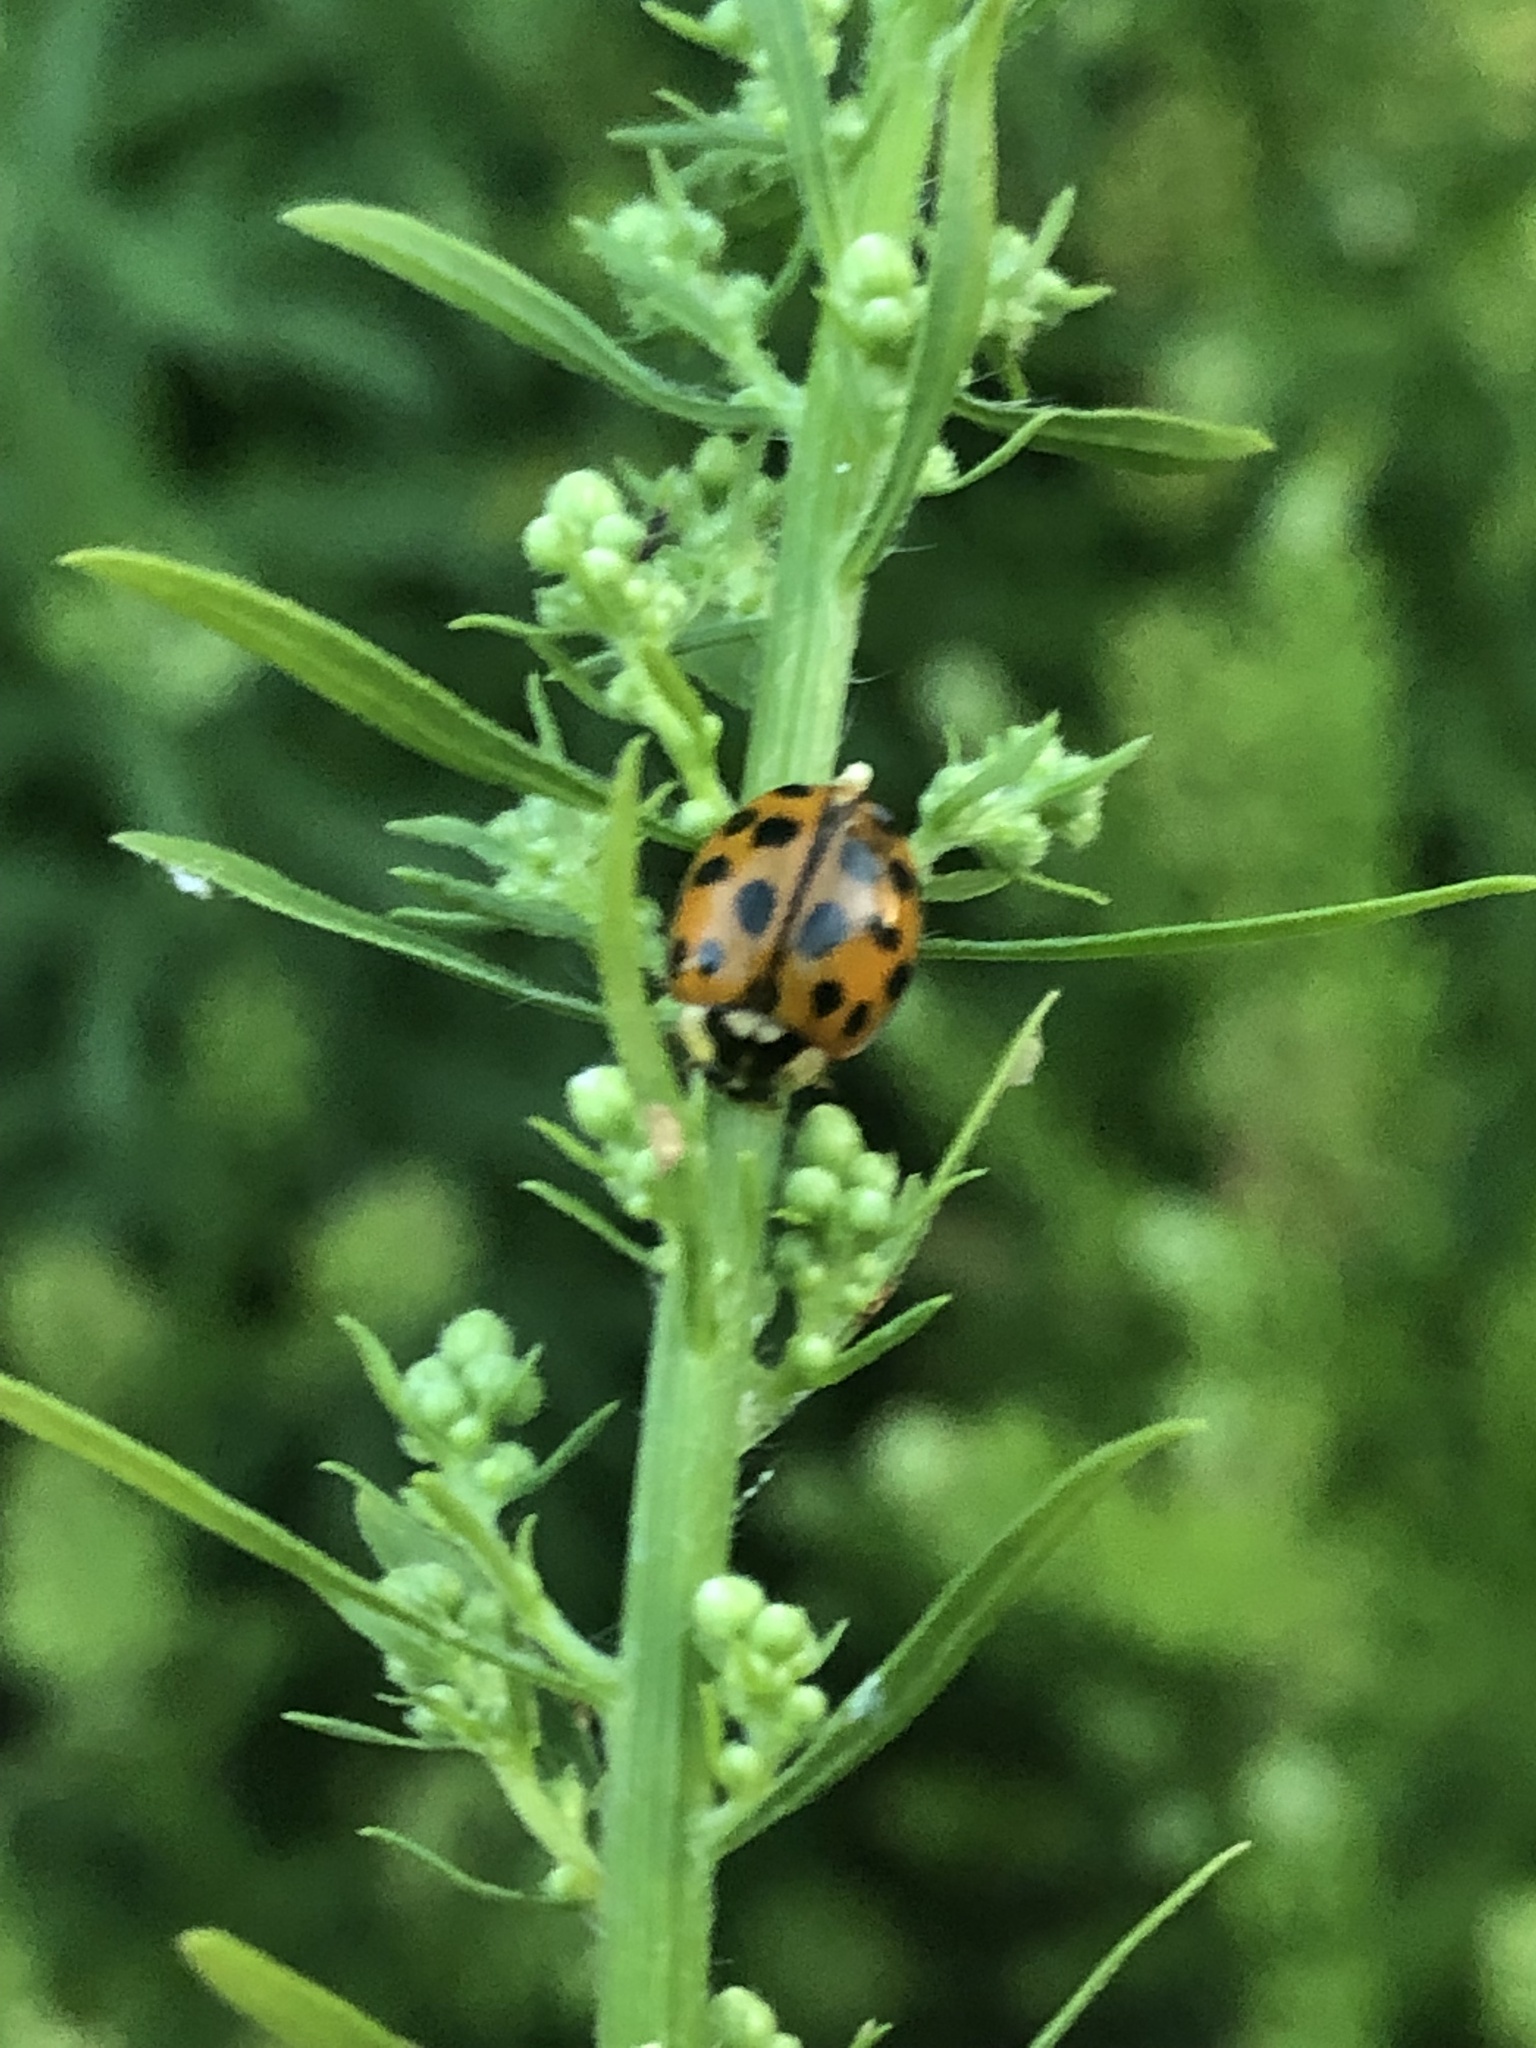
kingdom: Animalia
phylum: Arthropoda
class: Insecta
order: Coleoptera
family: Coccinellidae
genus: Harmonia
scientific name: Harmonia axyridis
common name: Harlequin ladybird
